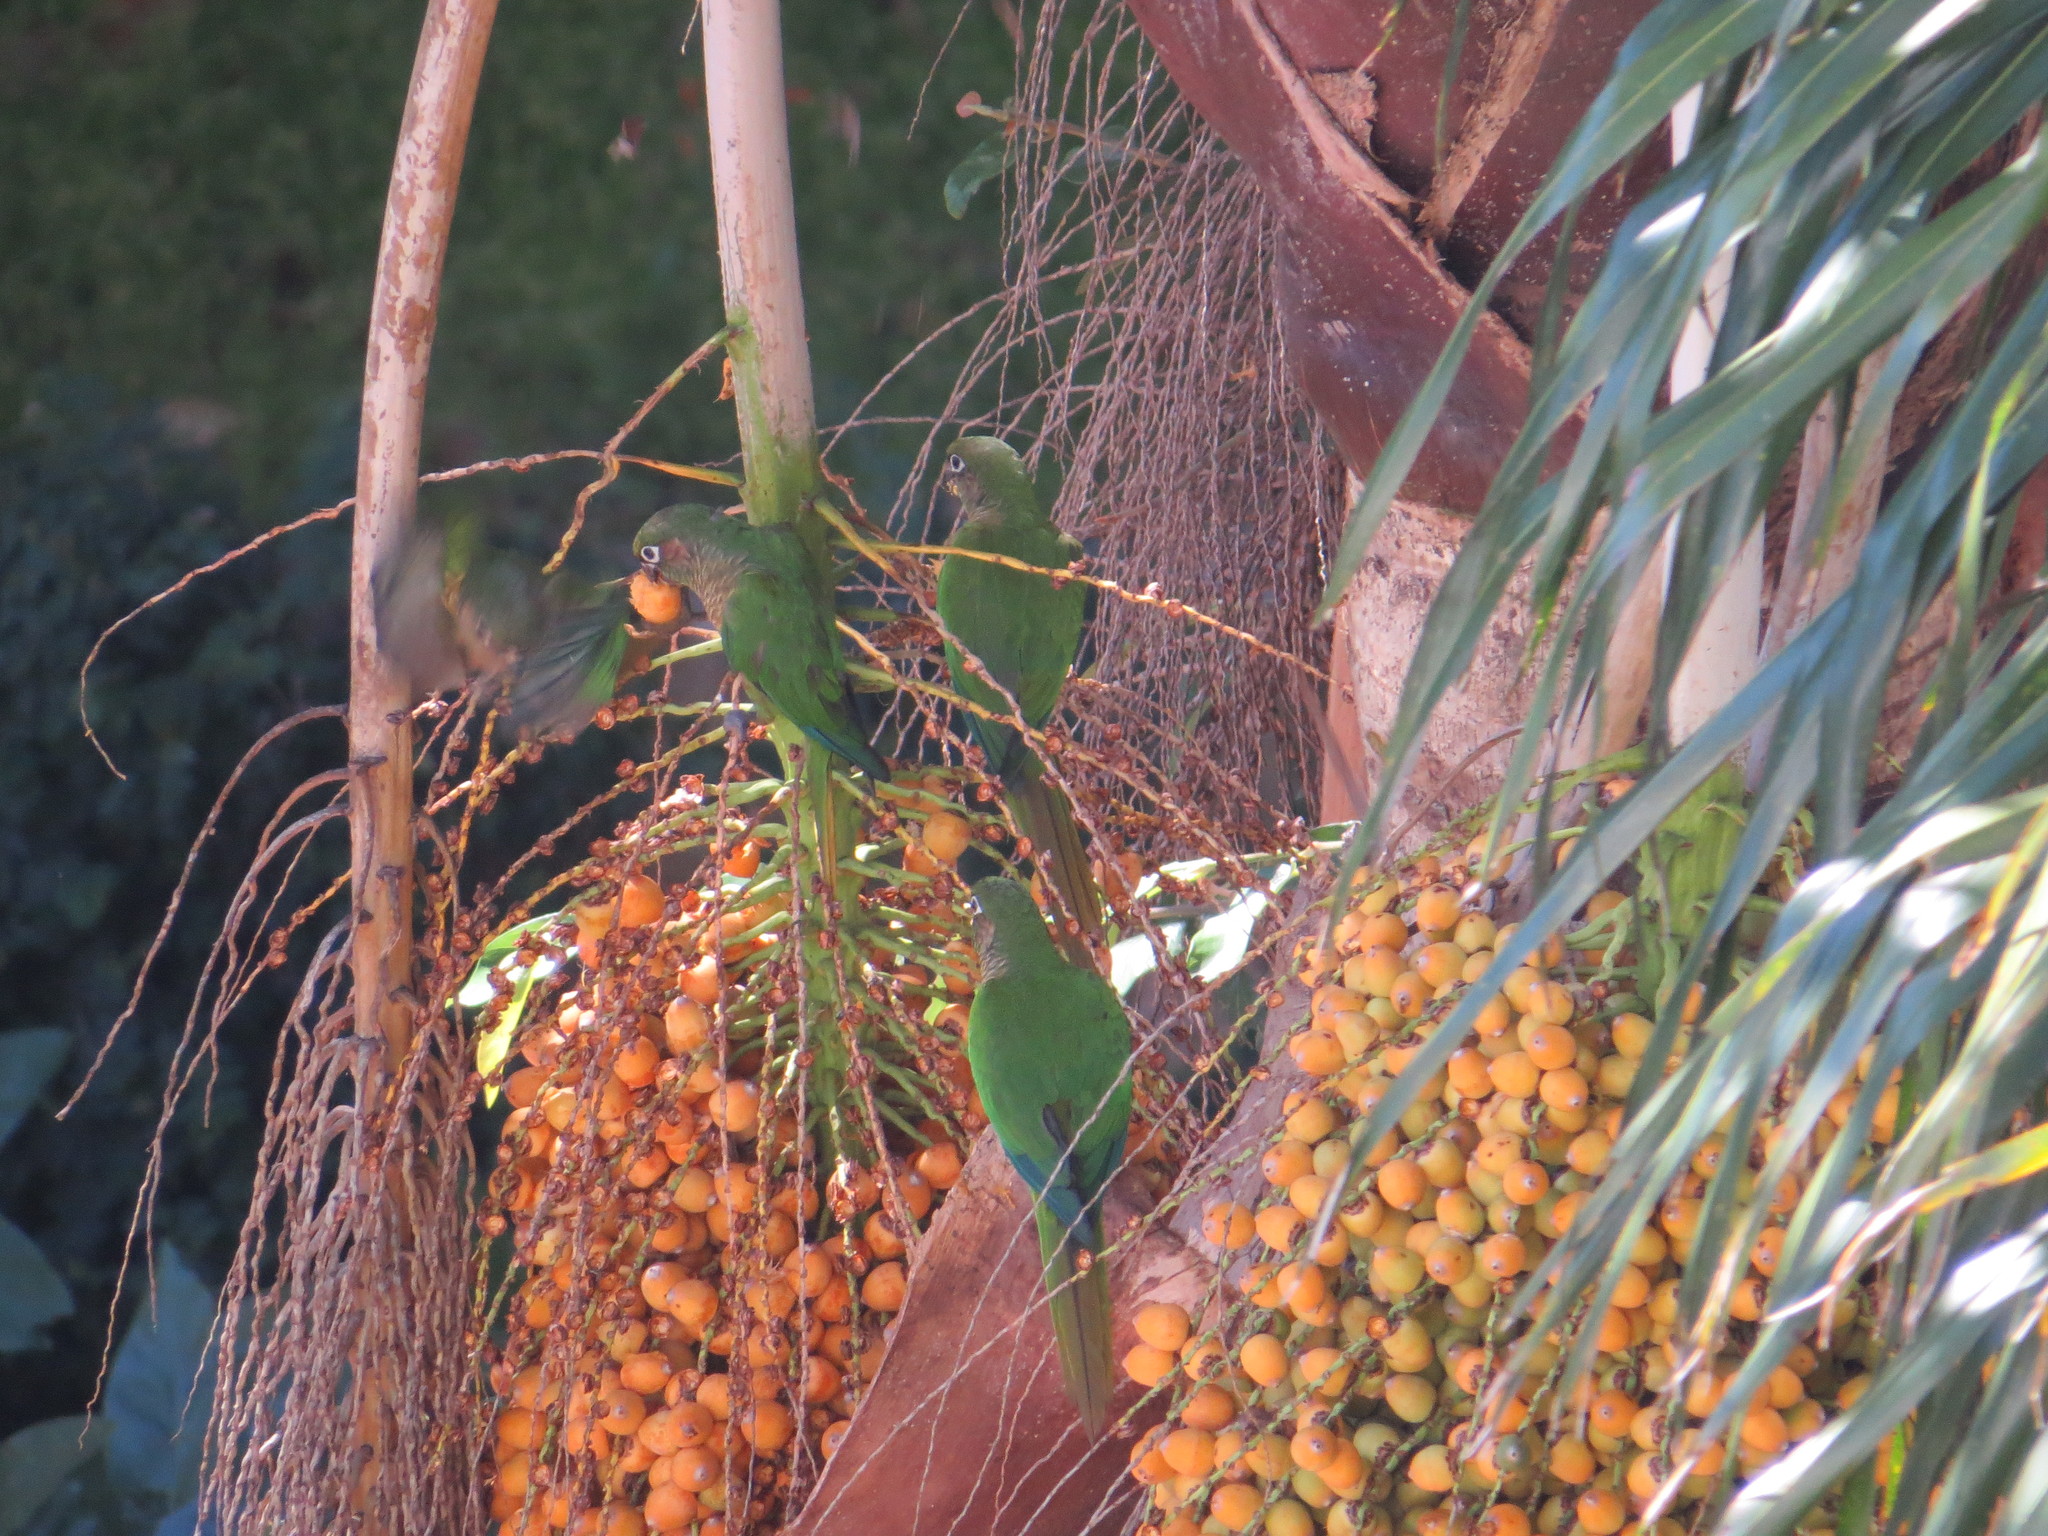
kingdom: Animalia
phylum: Chordata
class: Aves
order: Psittaciformes
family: Psittacidae
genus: Pyrrhura
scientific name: Pyrrhura frontalis
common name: Maroon-bellied parakeet
